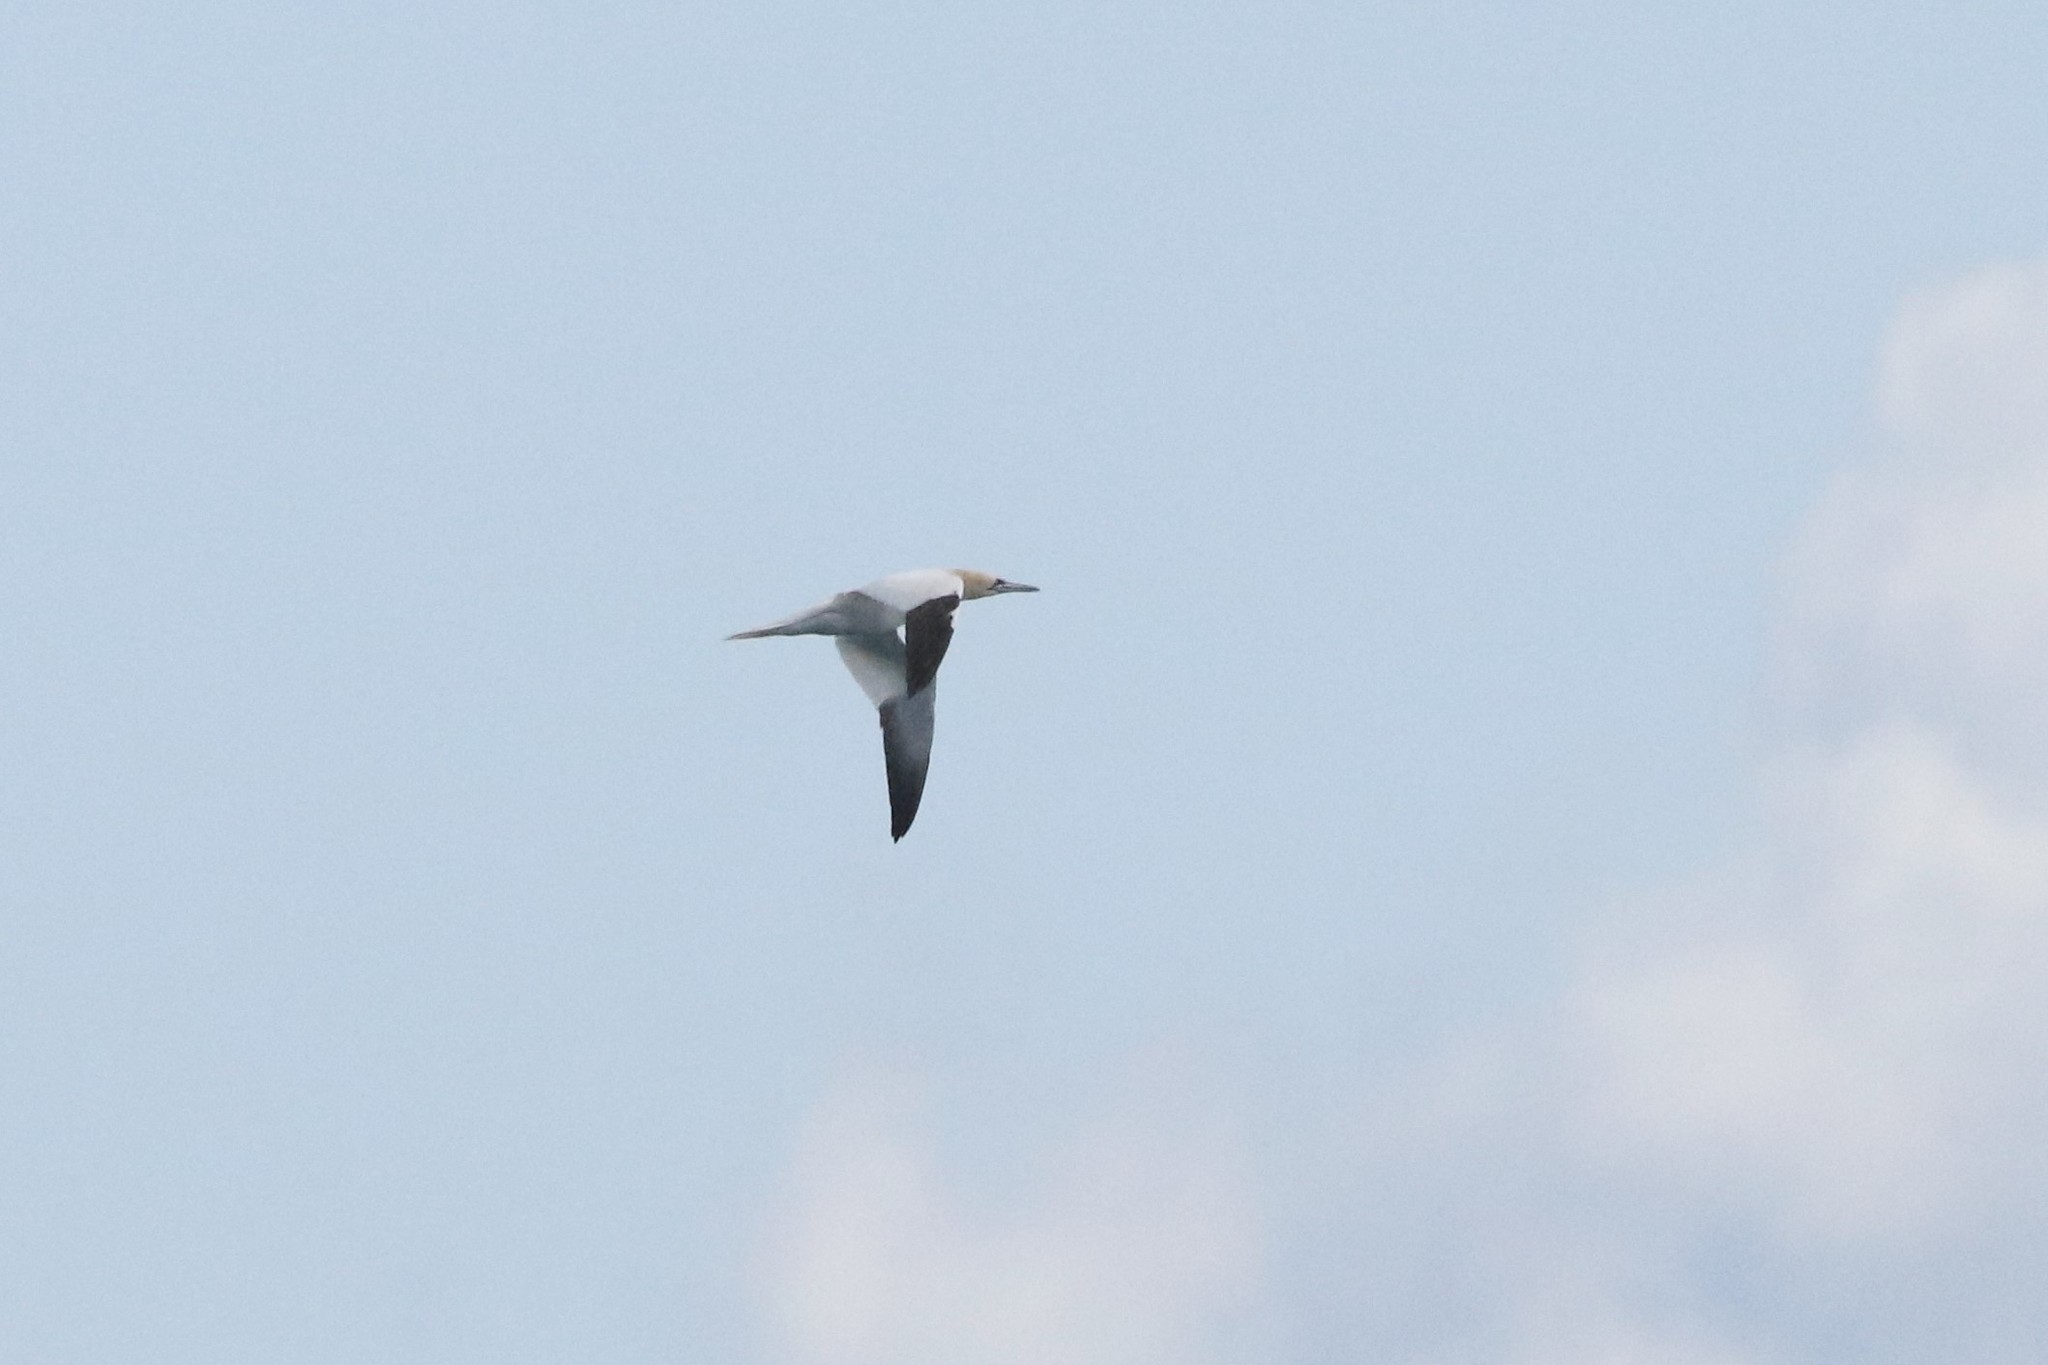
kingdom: Animalia
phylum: Chordata
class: Aves
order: Suliformes
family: Sulidae
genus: Morus
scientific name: Morus bassanus
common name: Northern gannet
